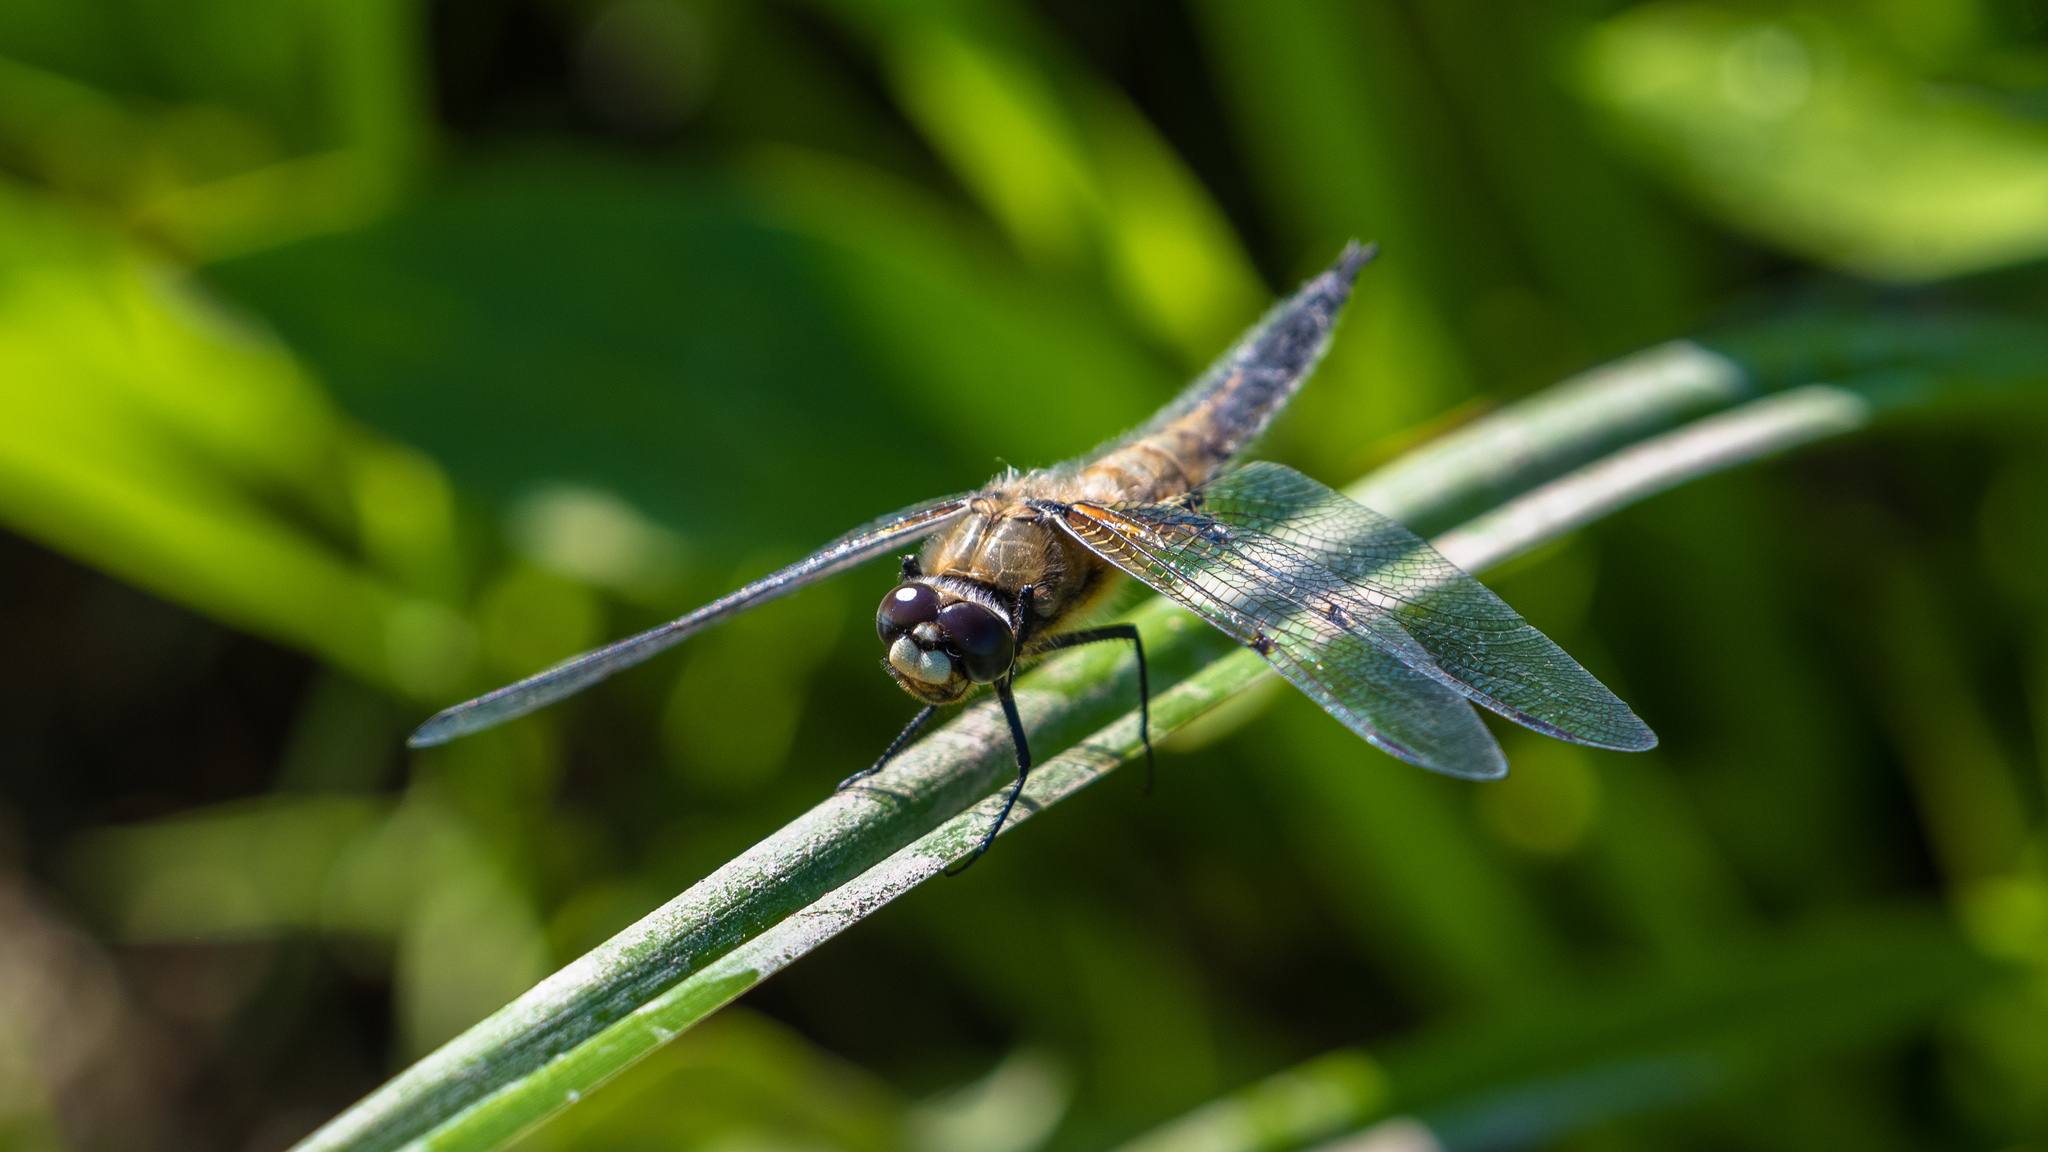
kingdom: Animalia
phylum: Arthropoda
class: Insecta
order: Odonata
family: Libellulidae
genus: Libellula
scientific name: Libellula quadrimaculata
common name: Four-spotted chaser
